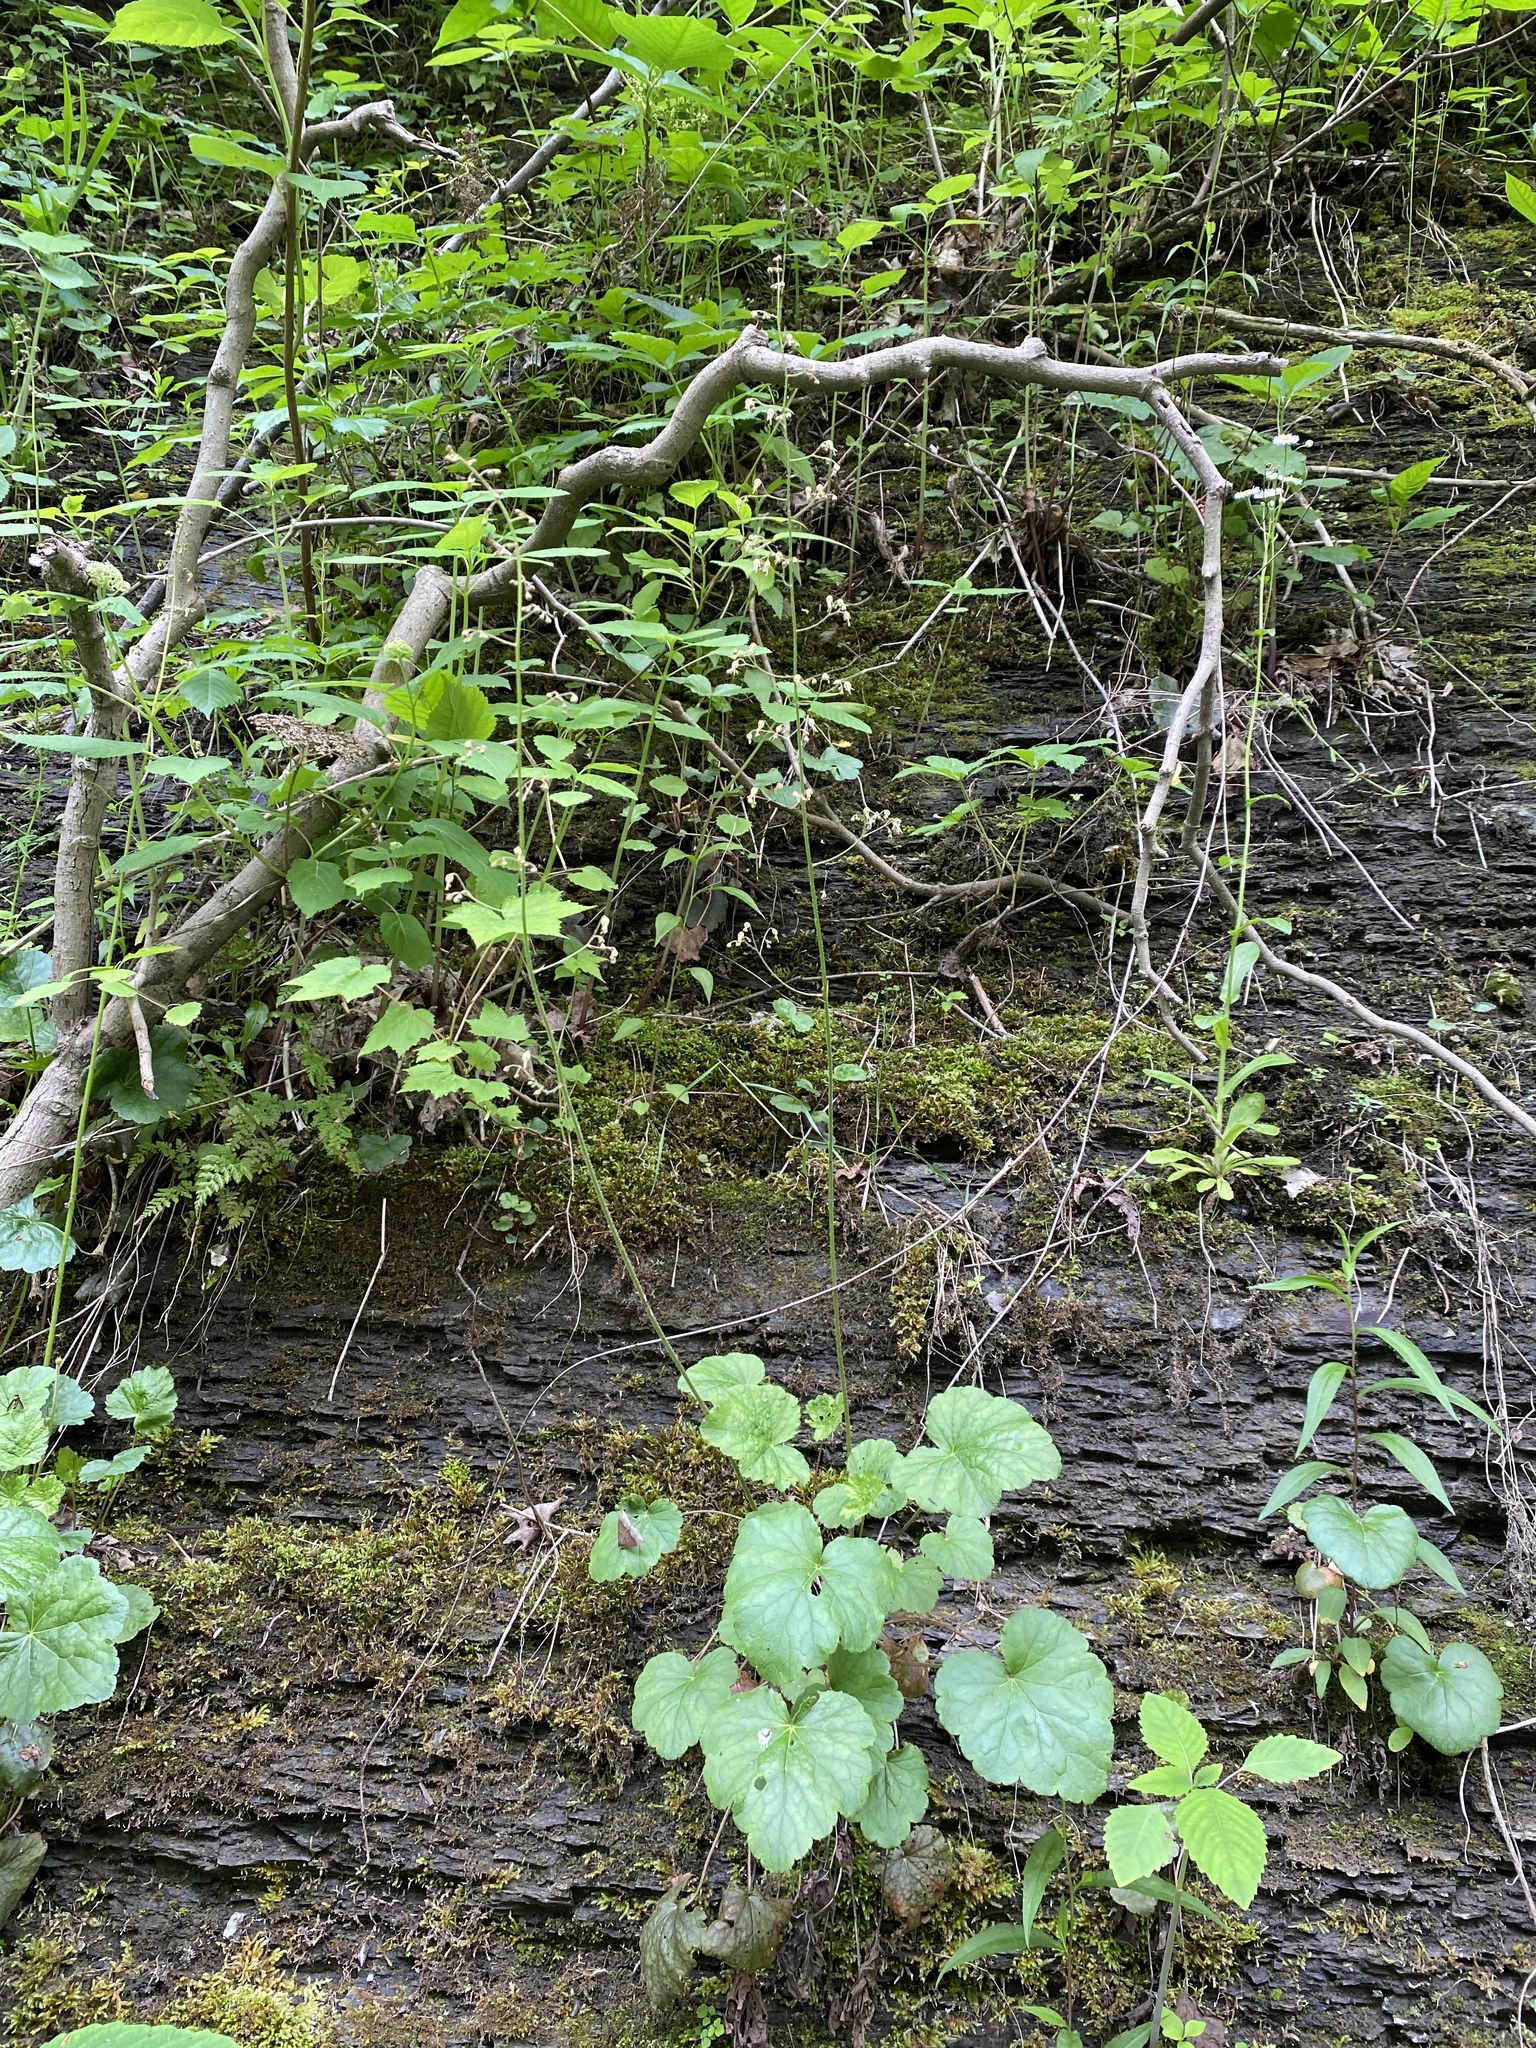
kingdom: Plantae
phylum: Tracheophyta
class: Magnoliopsida
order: Saxifragales
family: Saxifragaceae
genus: Heuchera
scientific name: Heuchera americana
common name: Alumroot
